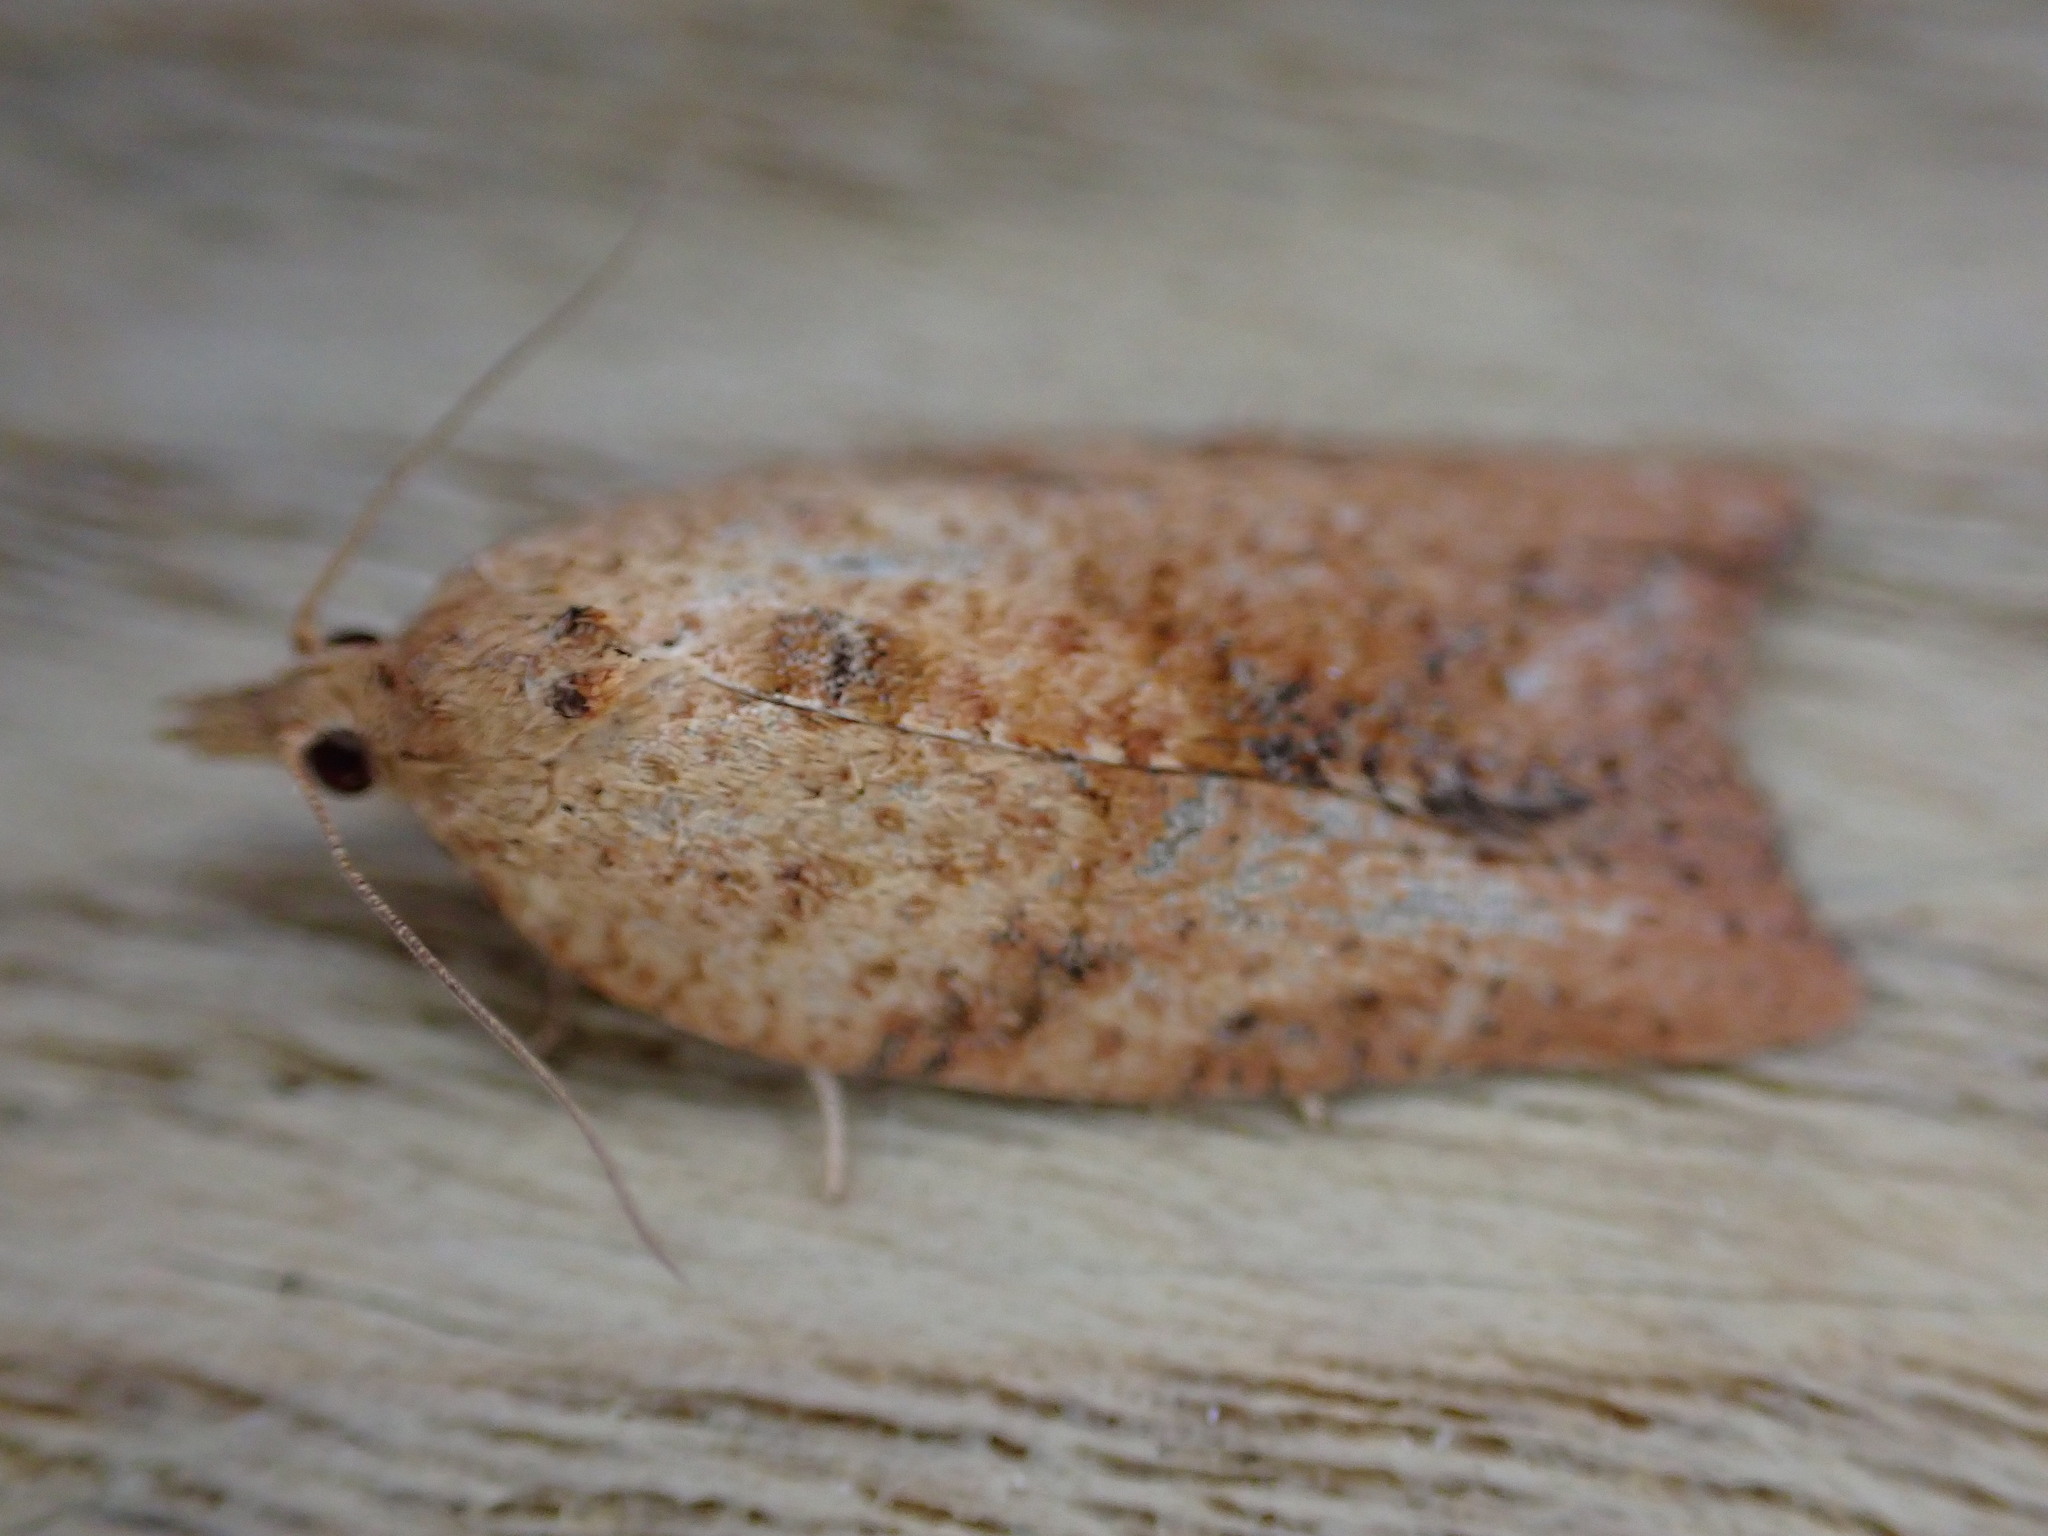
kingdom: Animalia
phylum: Arthropoda
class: Insecta
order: Lepidoptera
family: Tortricidae
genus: Epiphyas
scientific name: Epiphyas postvittana
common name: Light brown apple moth
